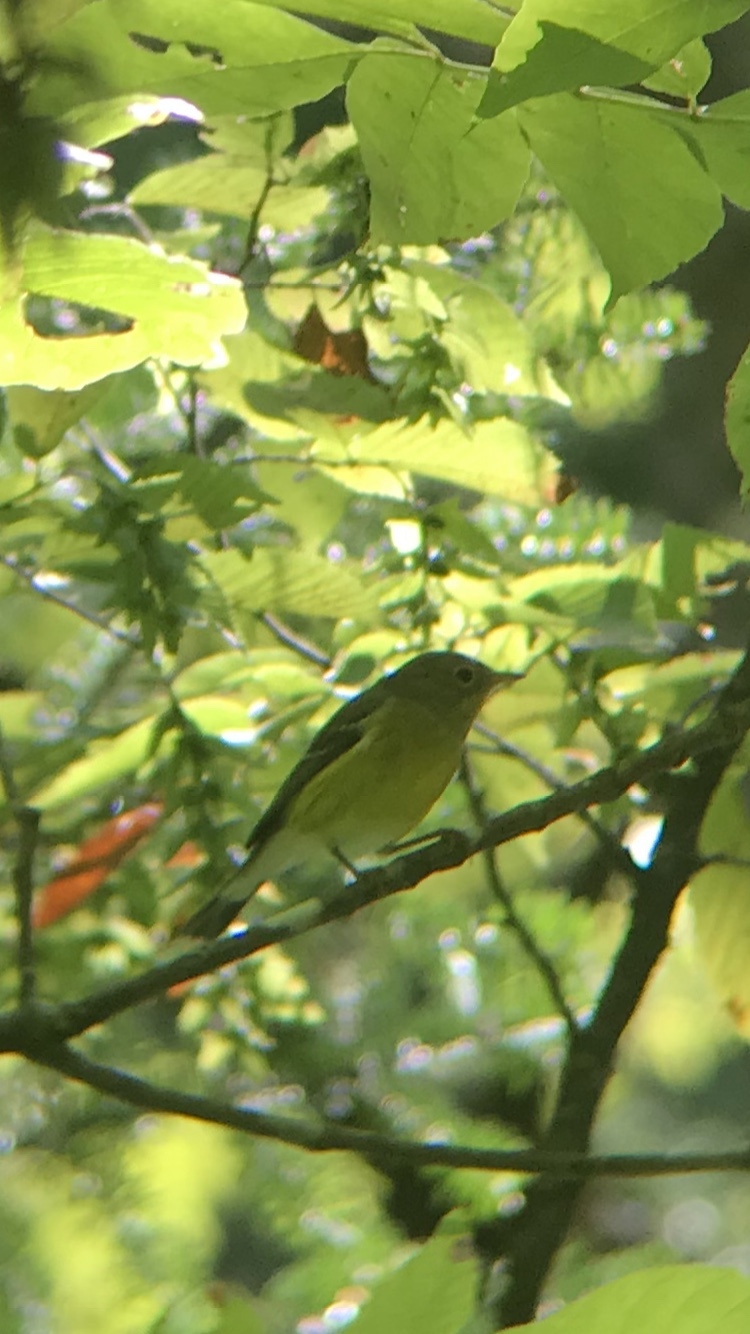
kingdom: Animalia
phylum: Chordata
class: Aves
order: Passeriformes
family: Parulidae
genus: Setophaga
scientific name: Setophaga magnolia
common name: Magnolia warbler
